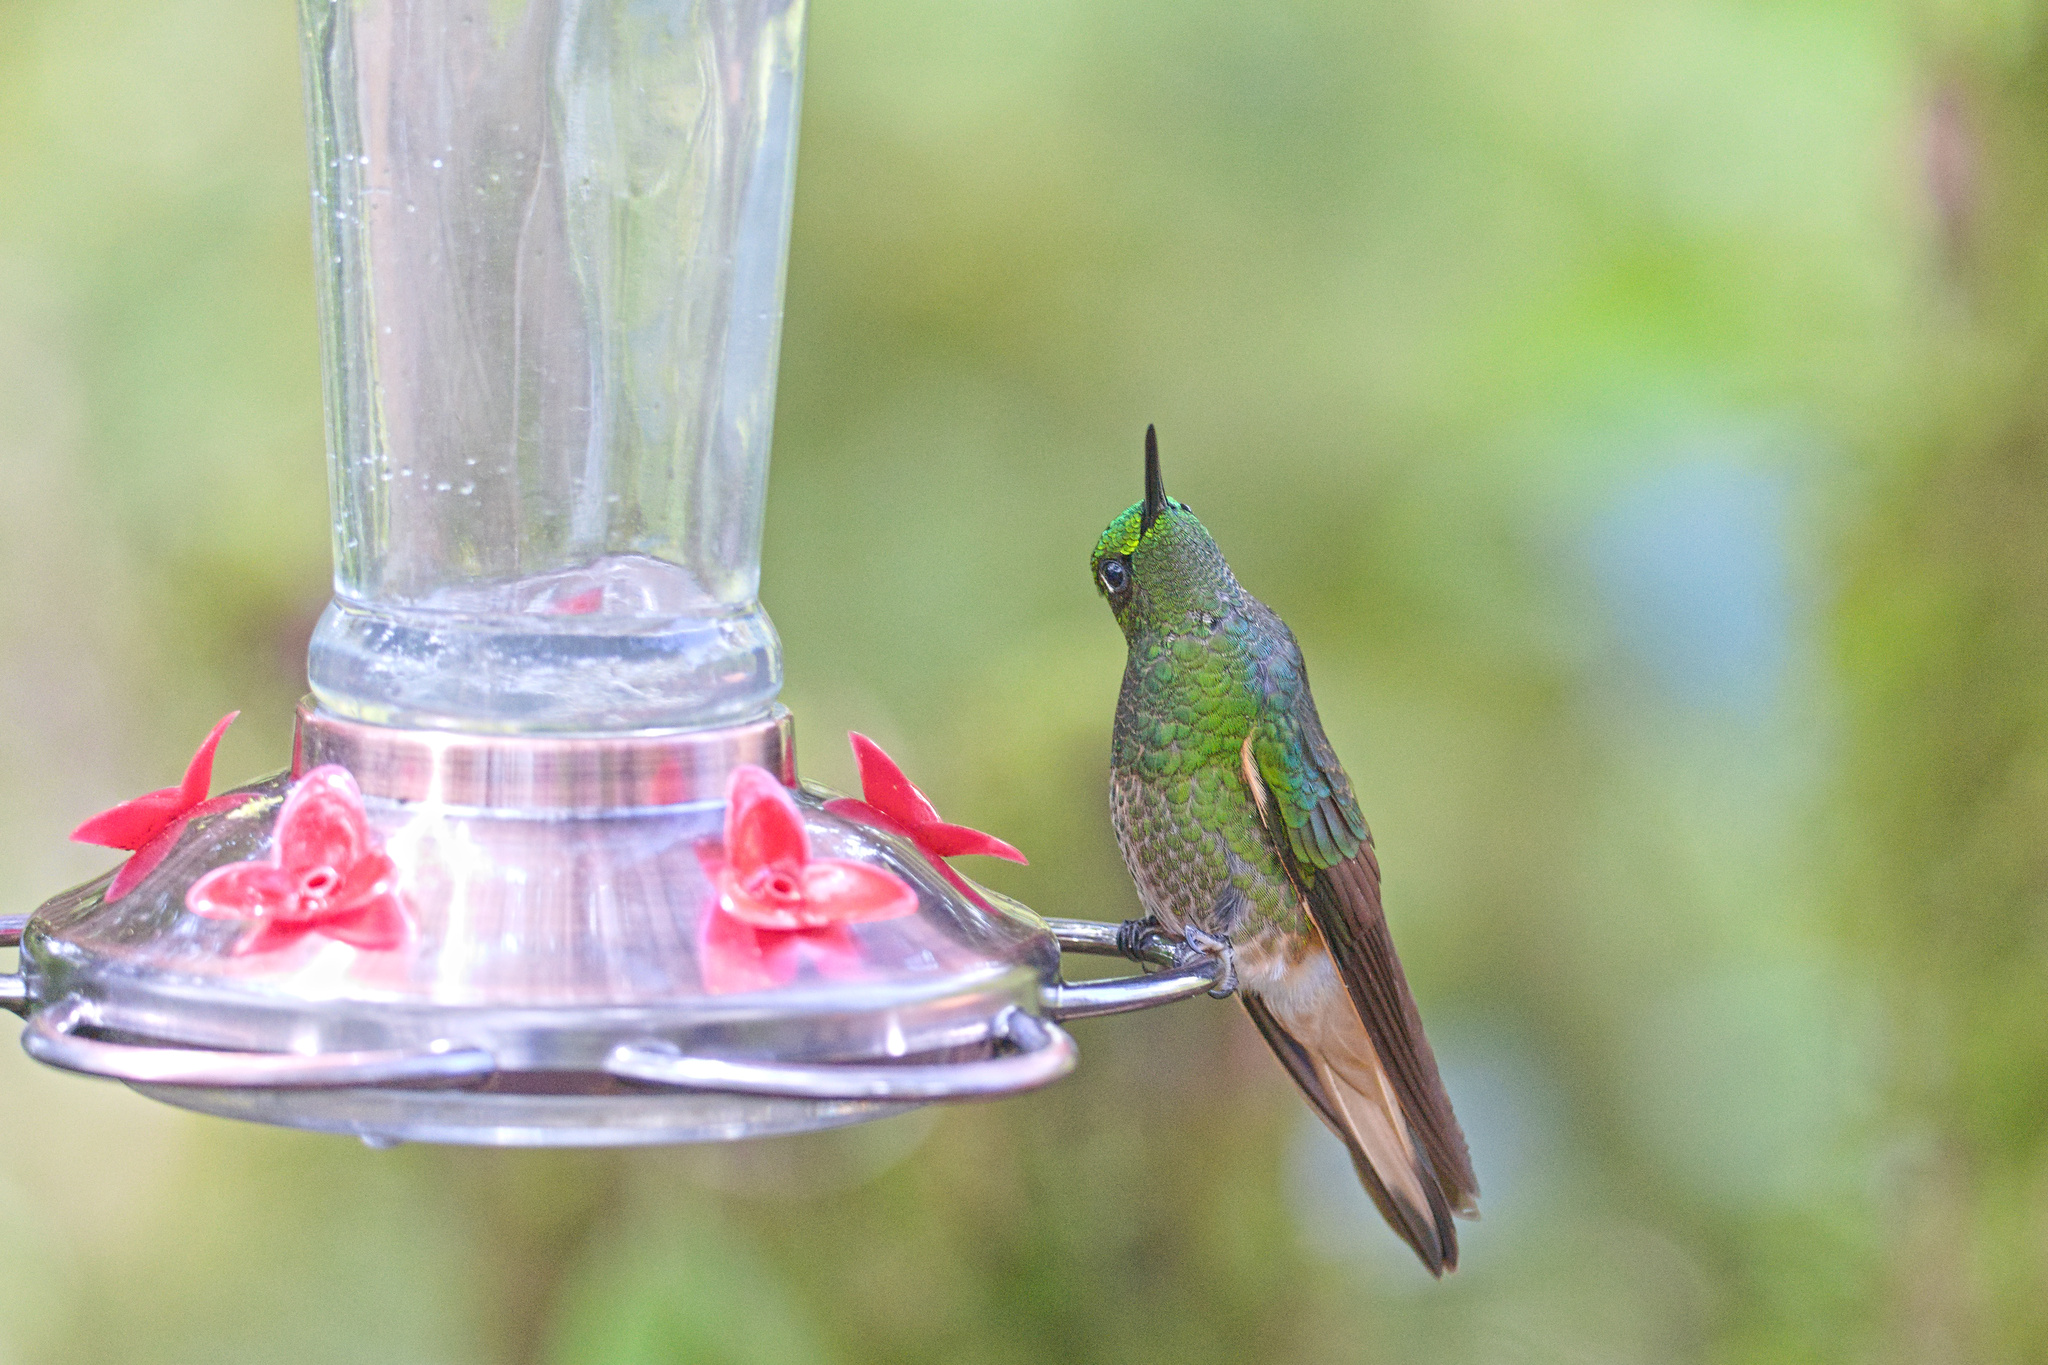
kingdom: Animalia
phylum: Chordata
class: Aves
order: Apodiformes
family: Trochilidae
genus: Boissonneaua
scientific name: Boissonneaua flavescens
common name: Buff-tailed coronet
